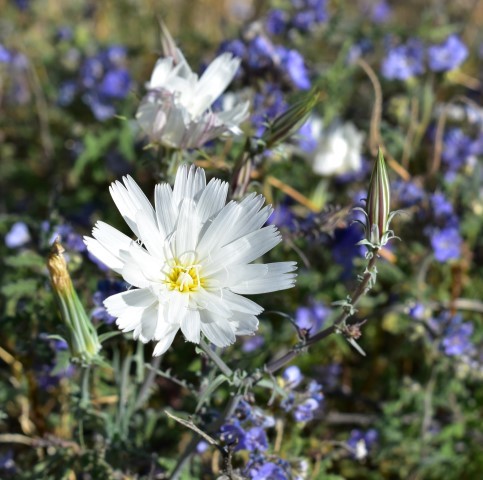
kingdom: Plantae
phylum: Tracheophyta
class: Magnoliopsida
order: Asterales
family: Asteraceae
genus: Rafinesquia
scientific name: Rafinesquia neomexicana
